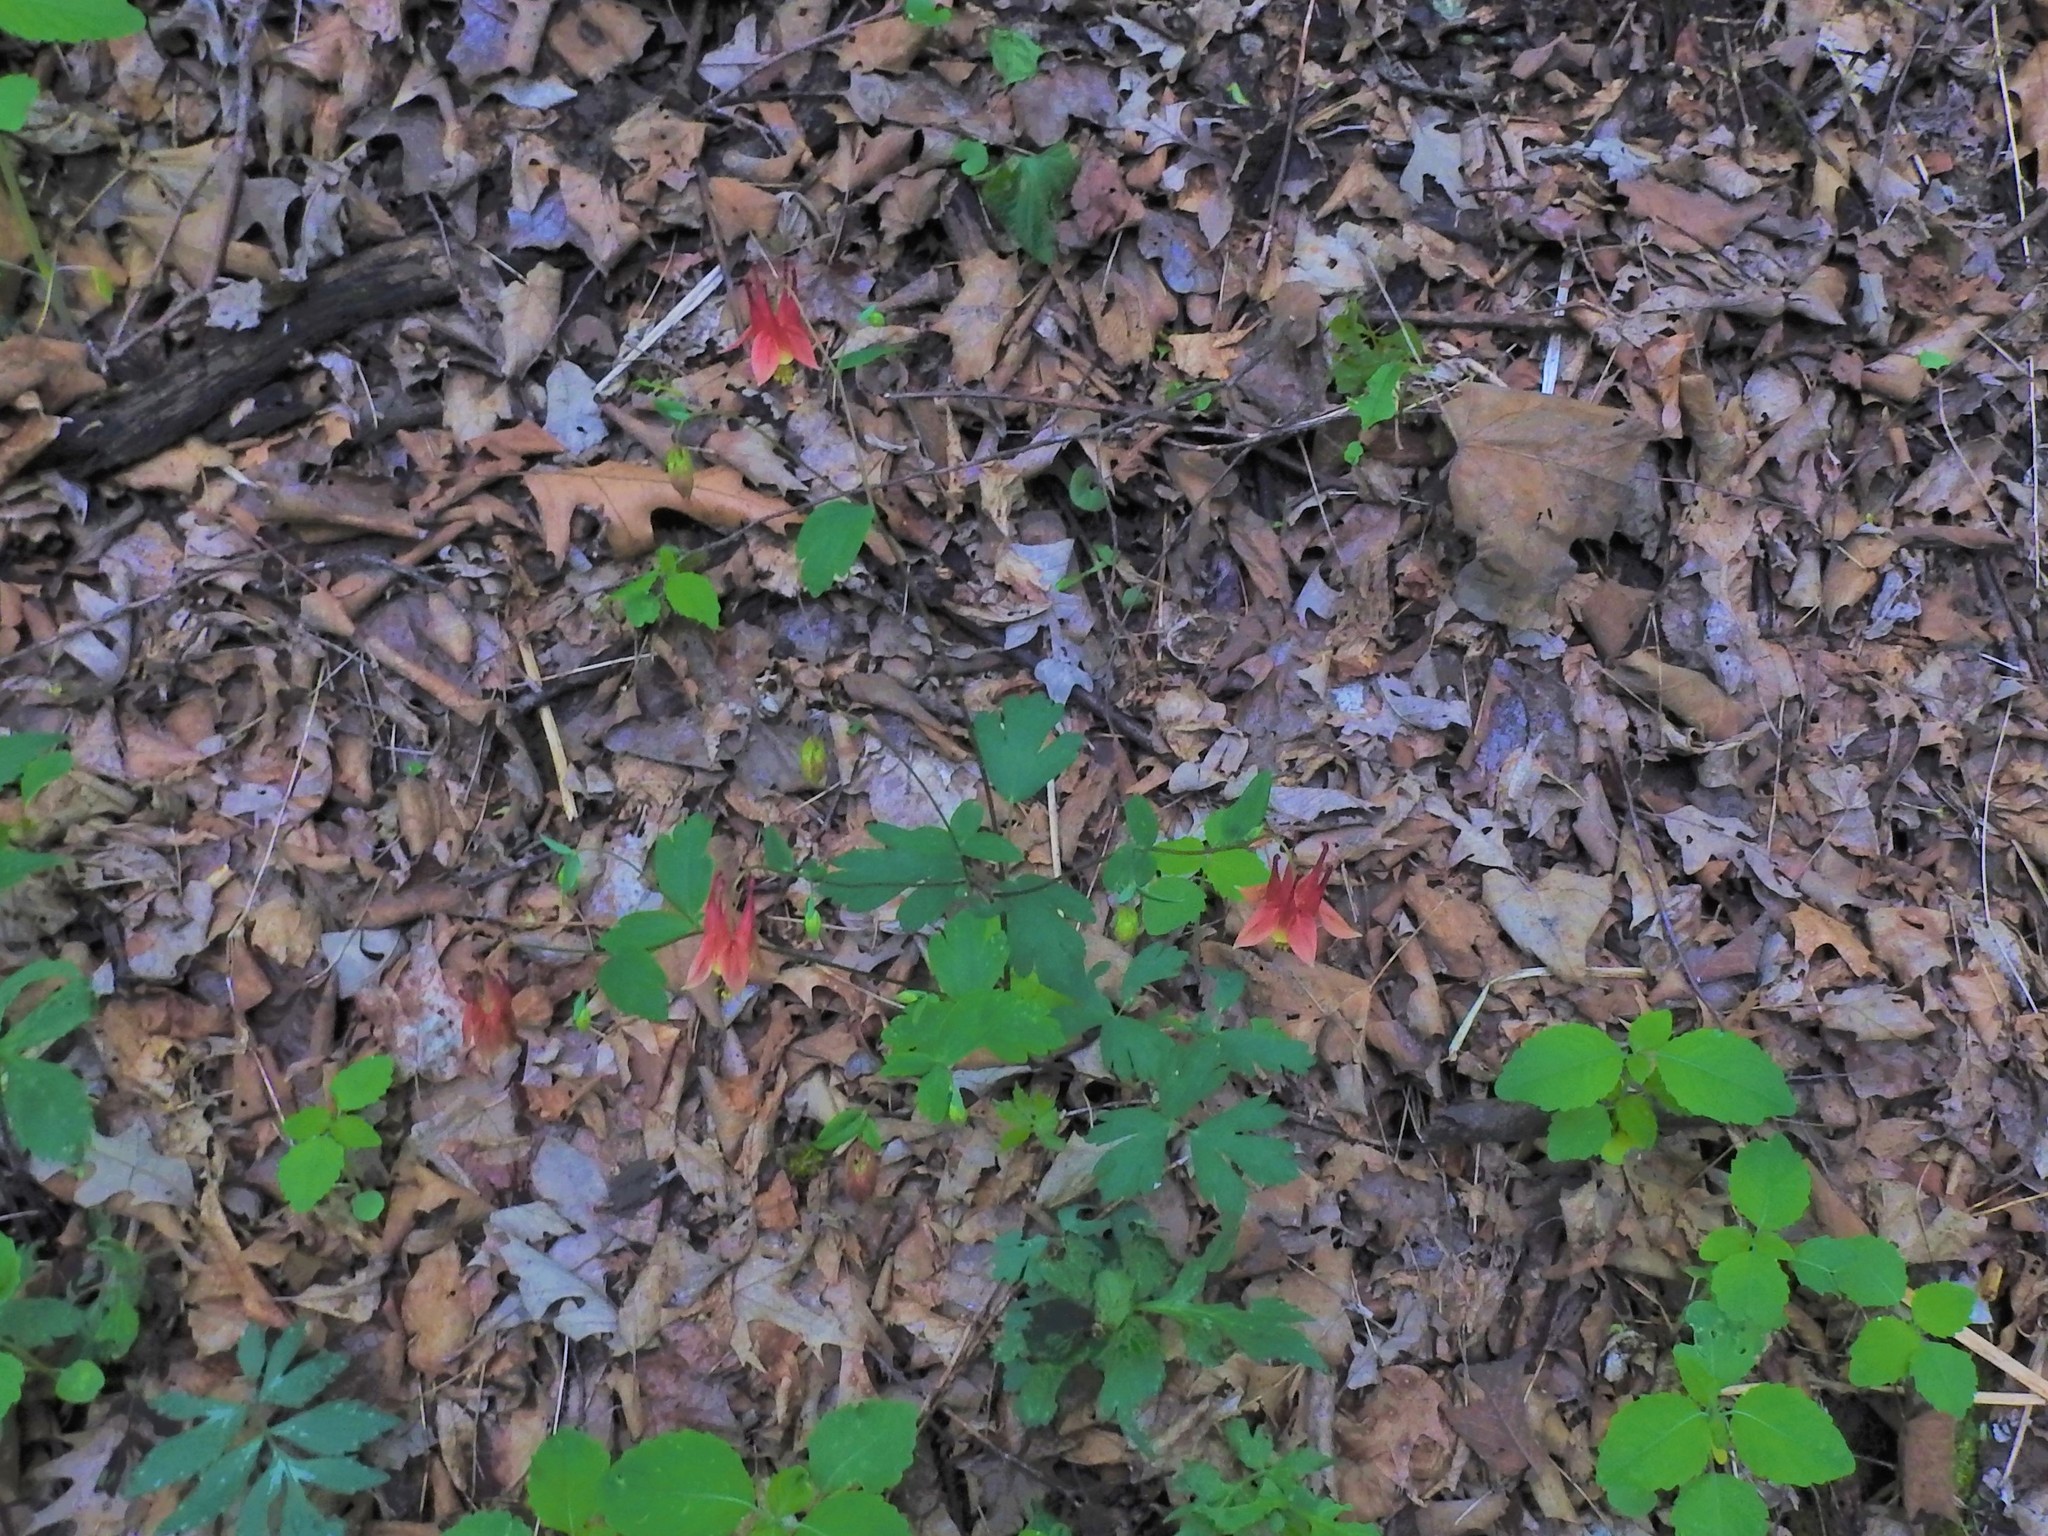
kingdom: Plantae
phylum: Tracheophyta
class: Magnoliopsida
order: Ranunculales
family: Ranunculaceae
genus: Aquilegia
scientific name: Aquilegia canadensis
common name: American columbine
